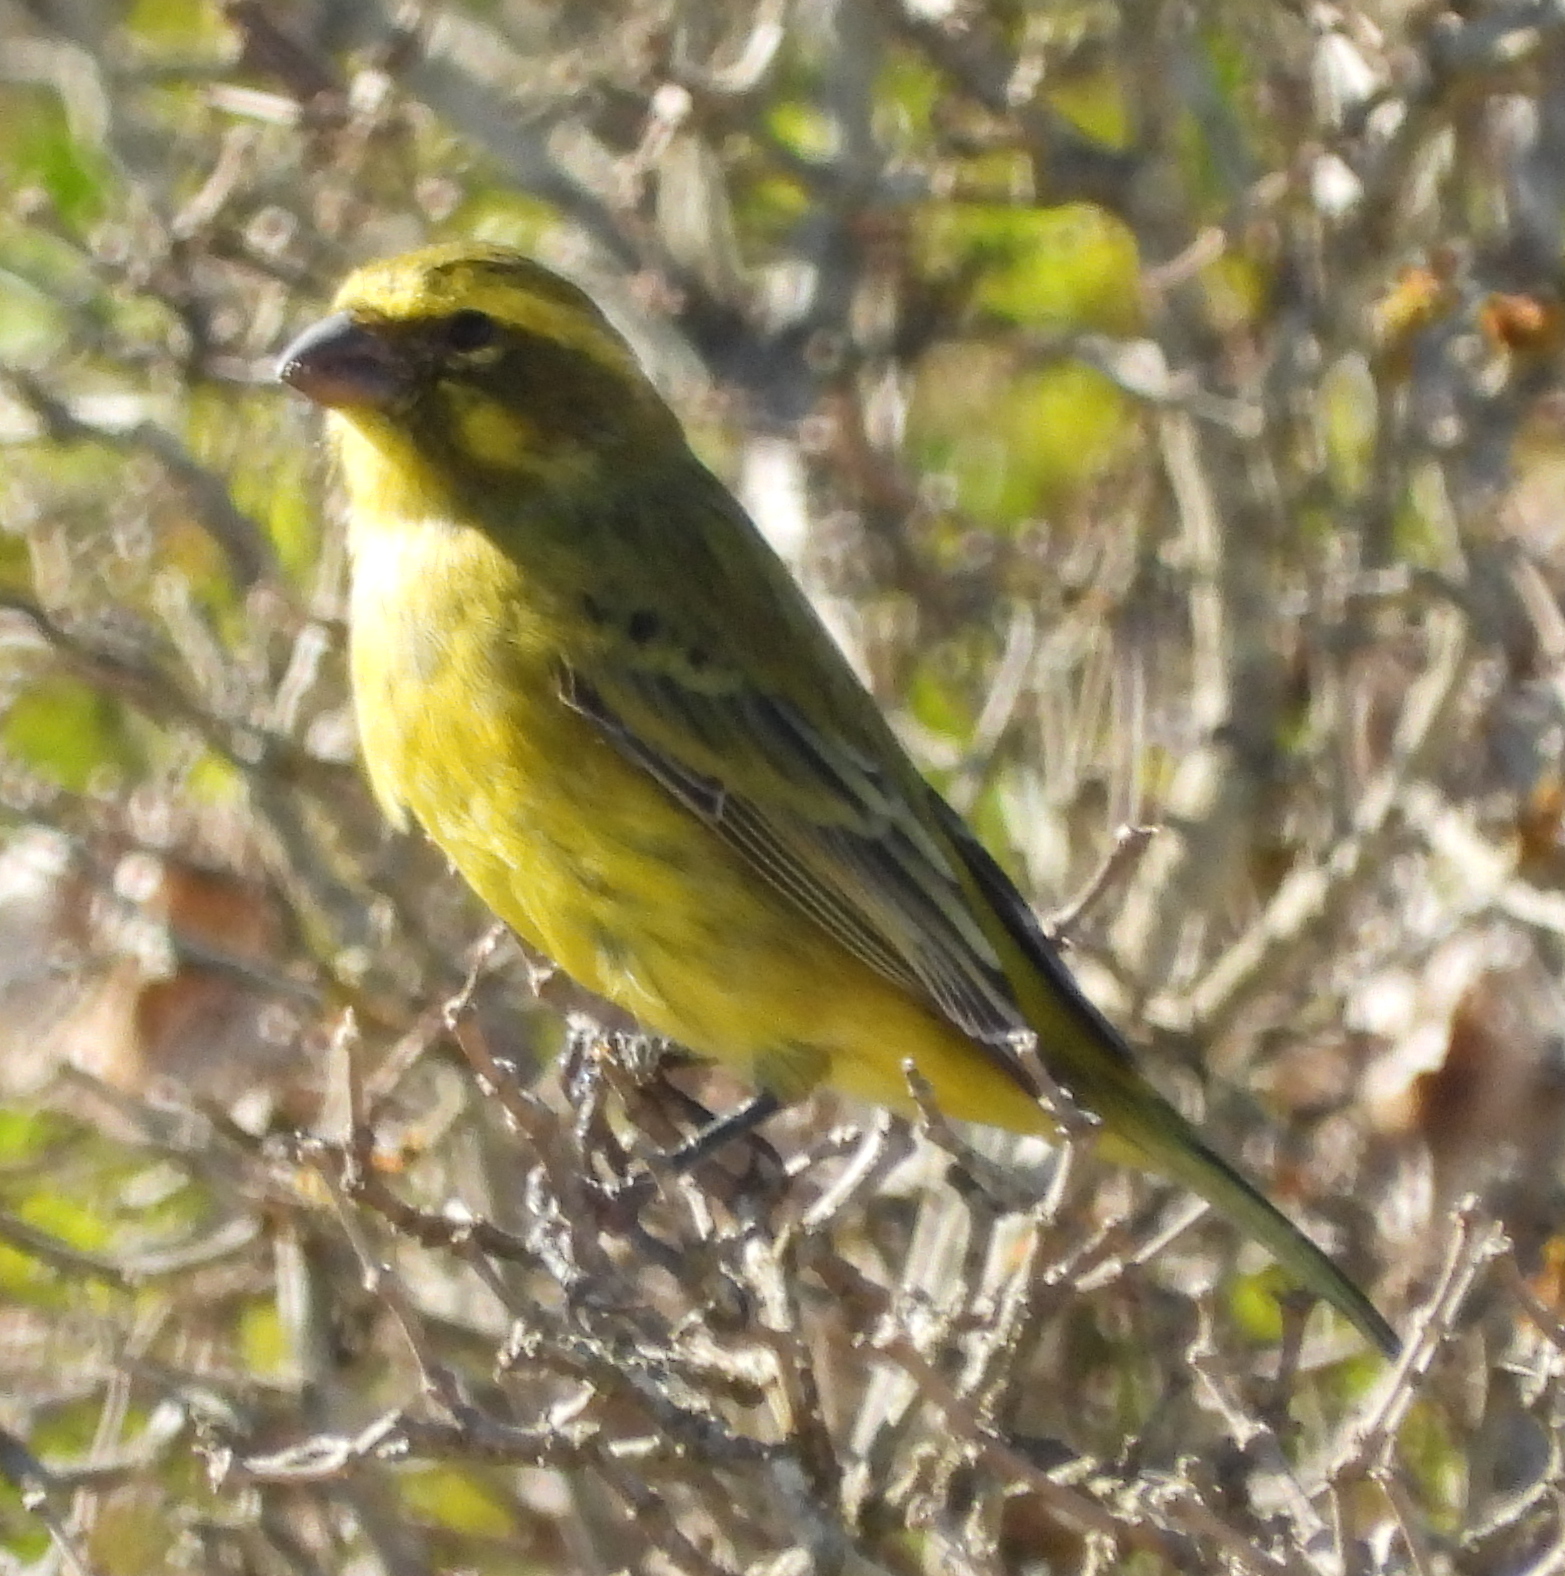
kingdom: Animalia
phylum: Chordata
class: Aves
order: Passeriformes
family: Fringillidae
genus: Crithagra
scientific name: Crithagra flaviventris
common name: Yellow canary
